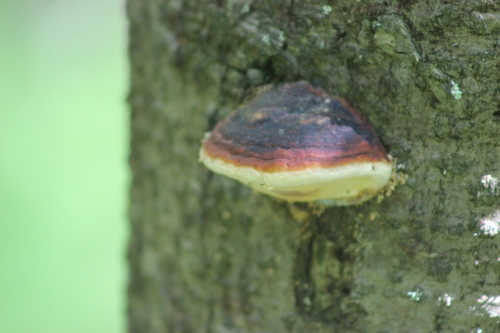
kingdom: Fungi
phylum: Basidiomycota
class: Agaricomycetes
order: Polyporales
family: Fomitopsidaceae
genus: Fomitopsis
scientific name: Fomitopsis pinicola
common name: Red-belted bracket
